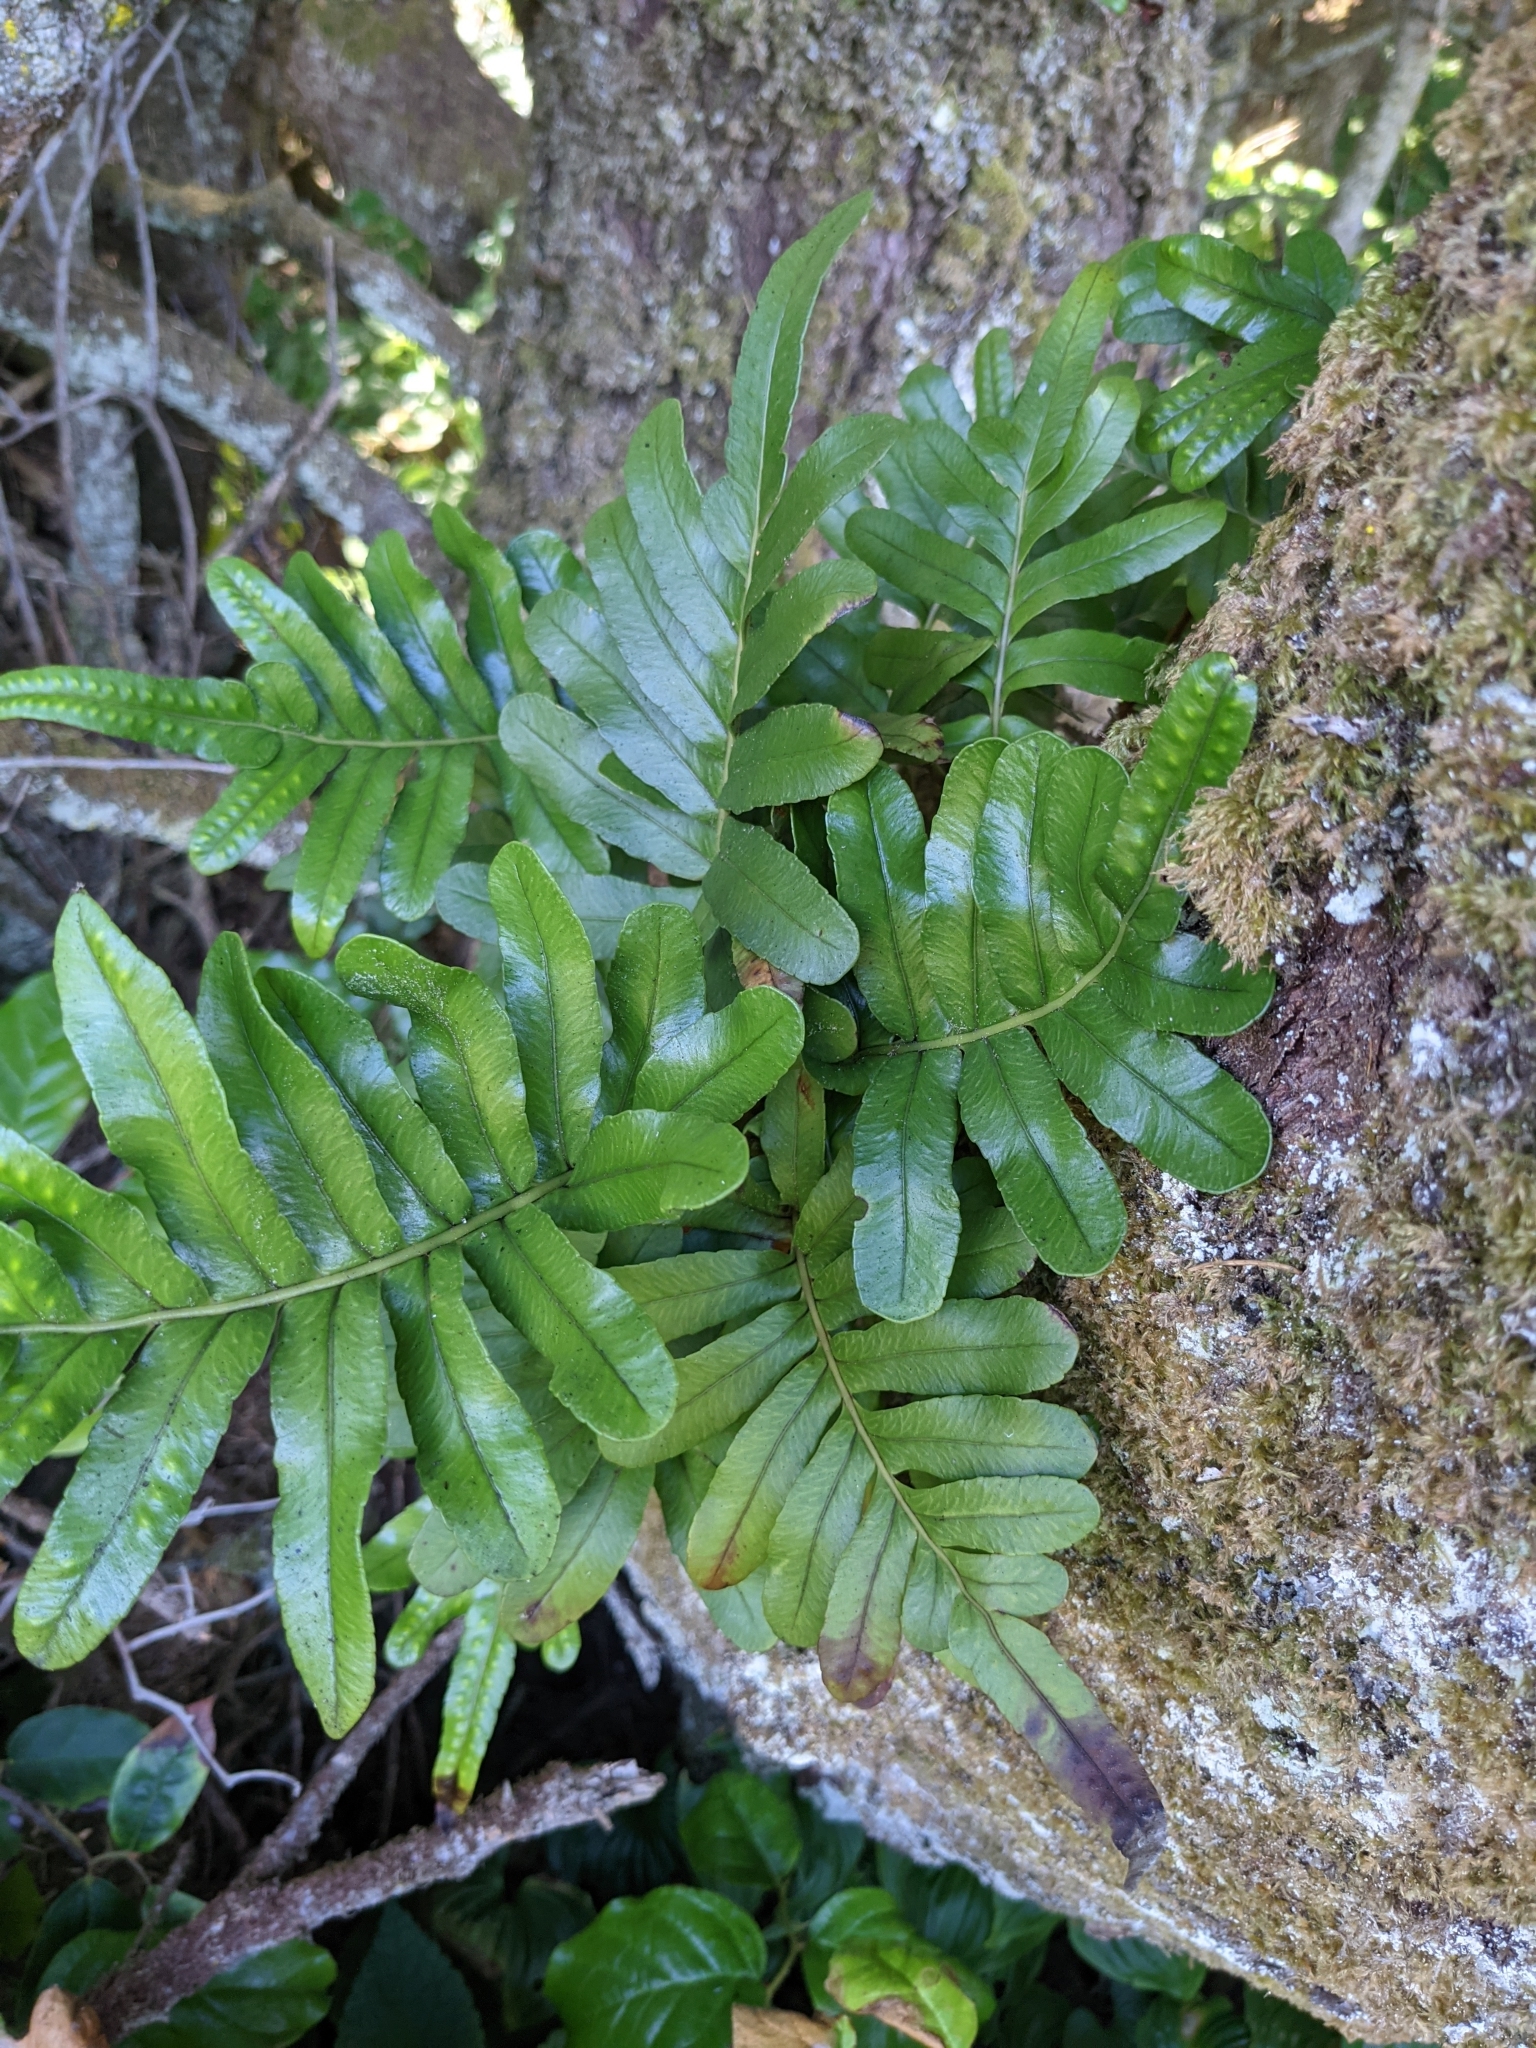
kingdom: Plantae
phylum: Tracheophyta
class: Polypodiopsida
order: Polypodiales
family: Polypodiaceae
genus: Polypodium
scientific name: Polypodium scouleri
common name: Scouler's polypody
